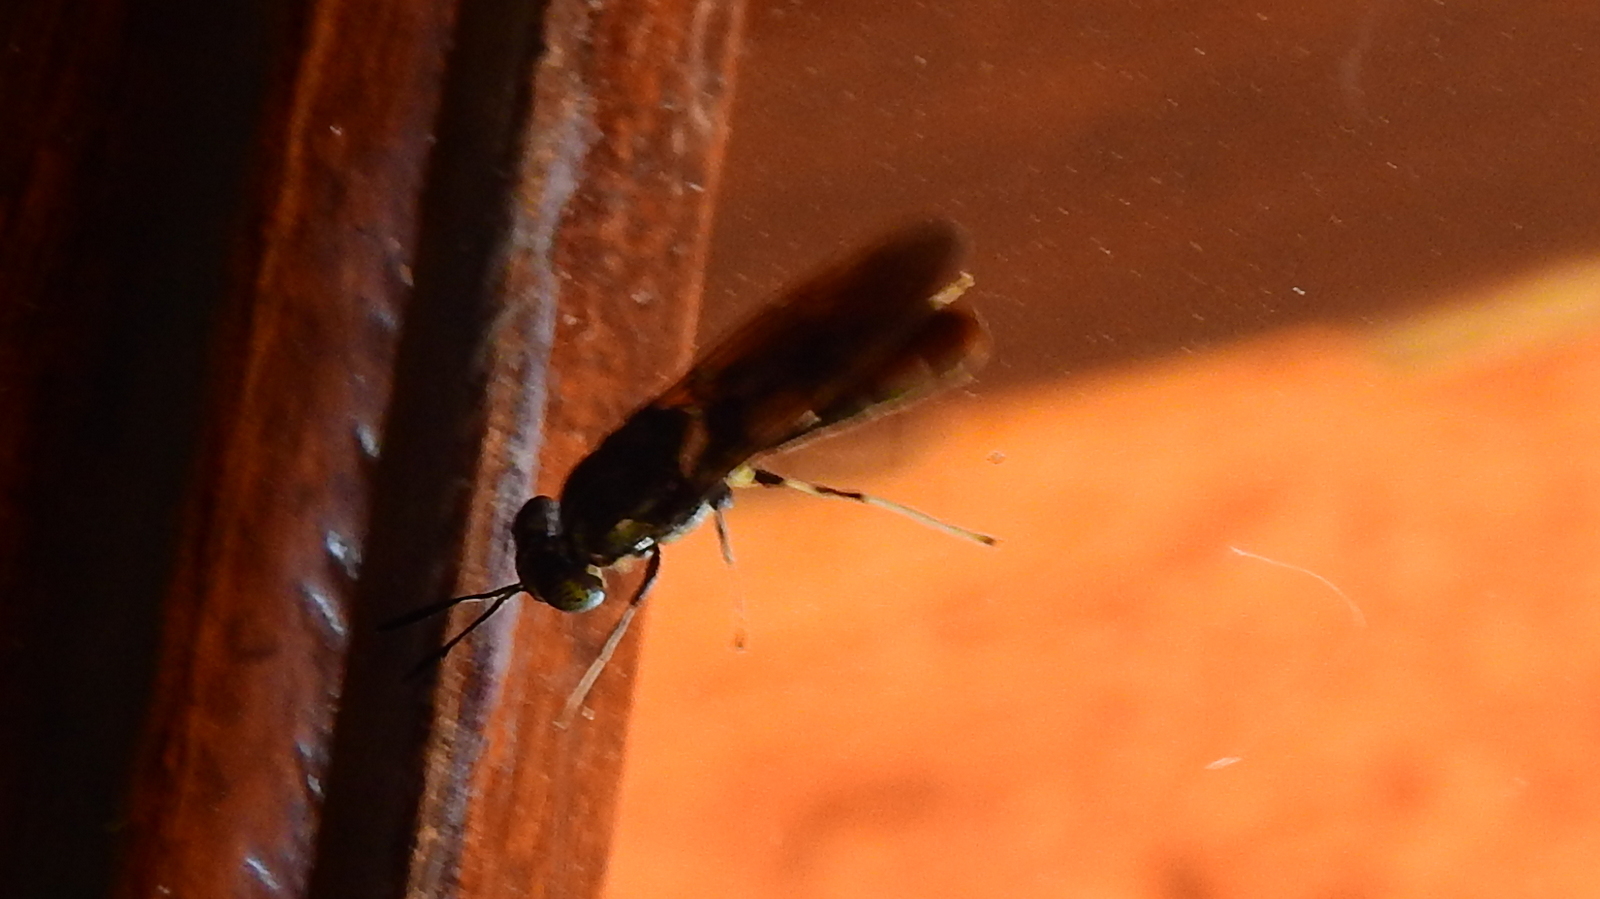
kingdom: Animalia
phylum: Arthropoda
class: Insecta
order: Diptera
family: Stratiomyidae
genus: Hermetia
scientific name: Hermetia illucens
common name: Black soldier fly
